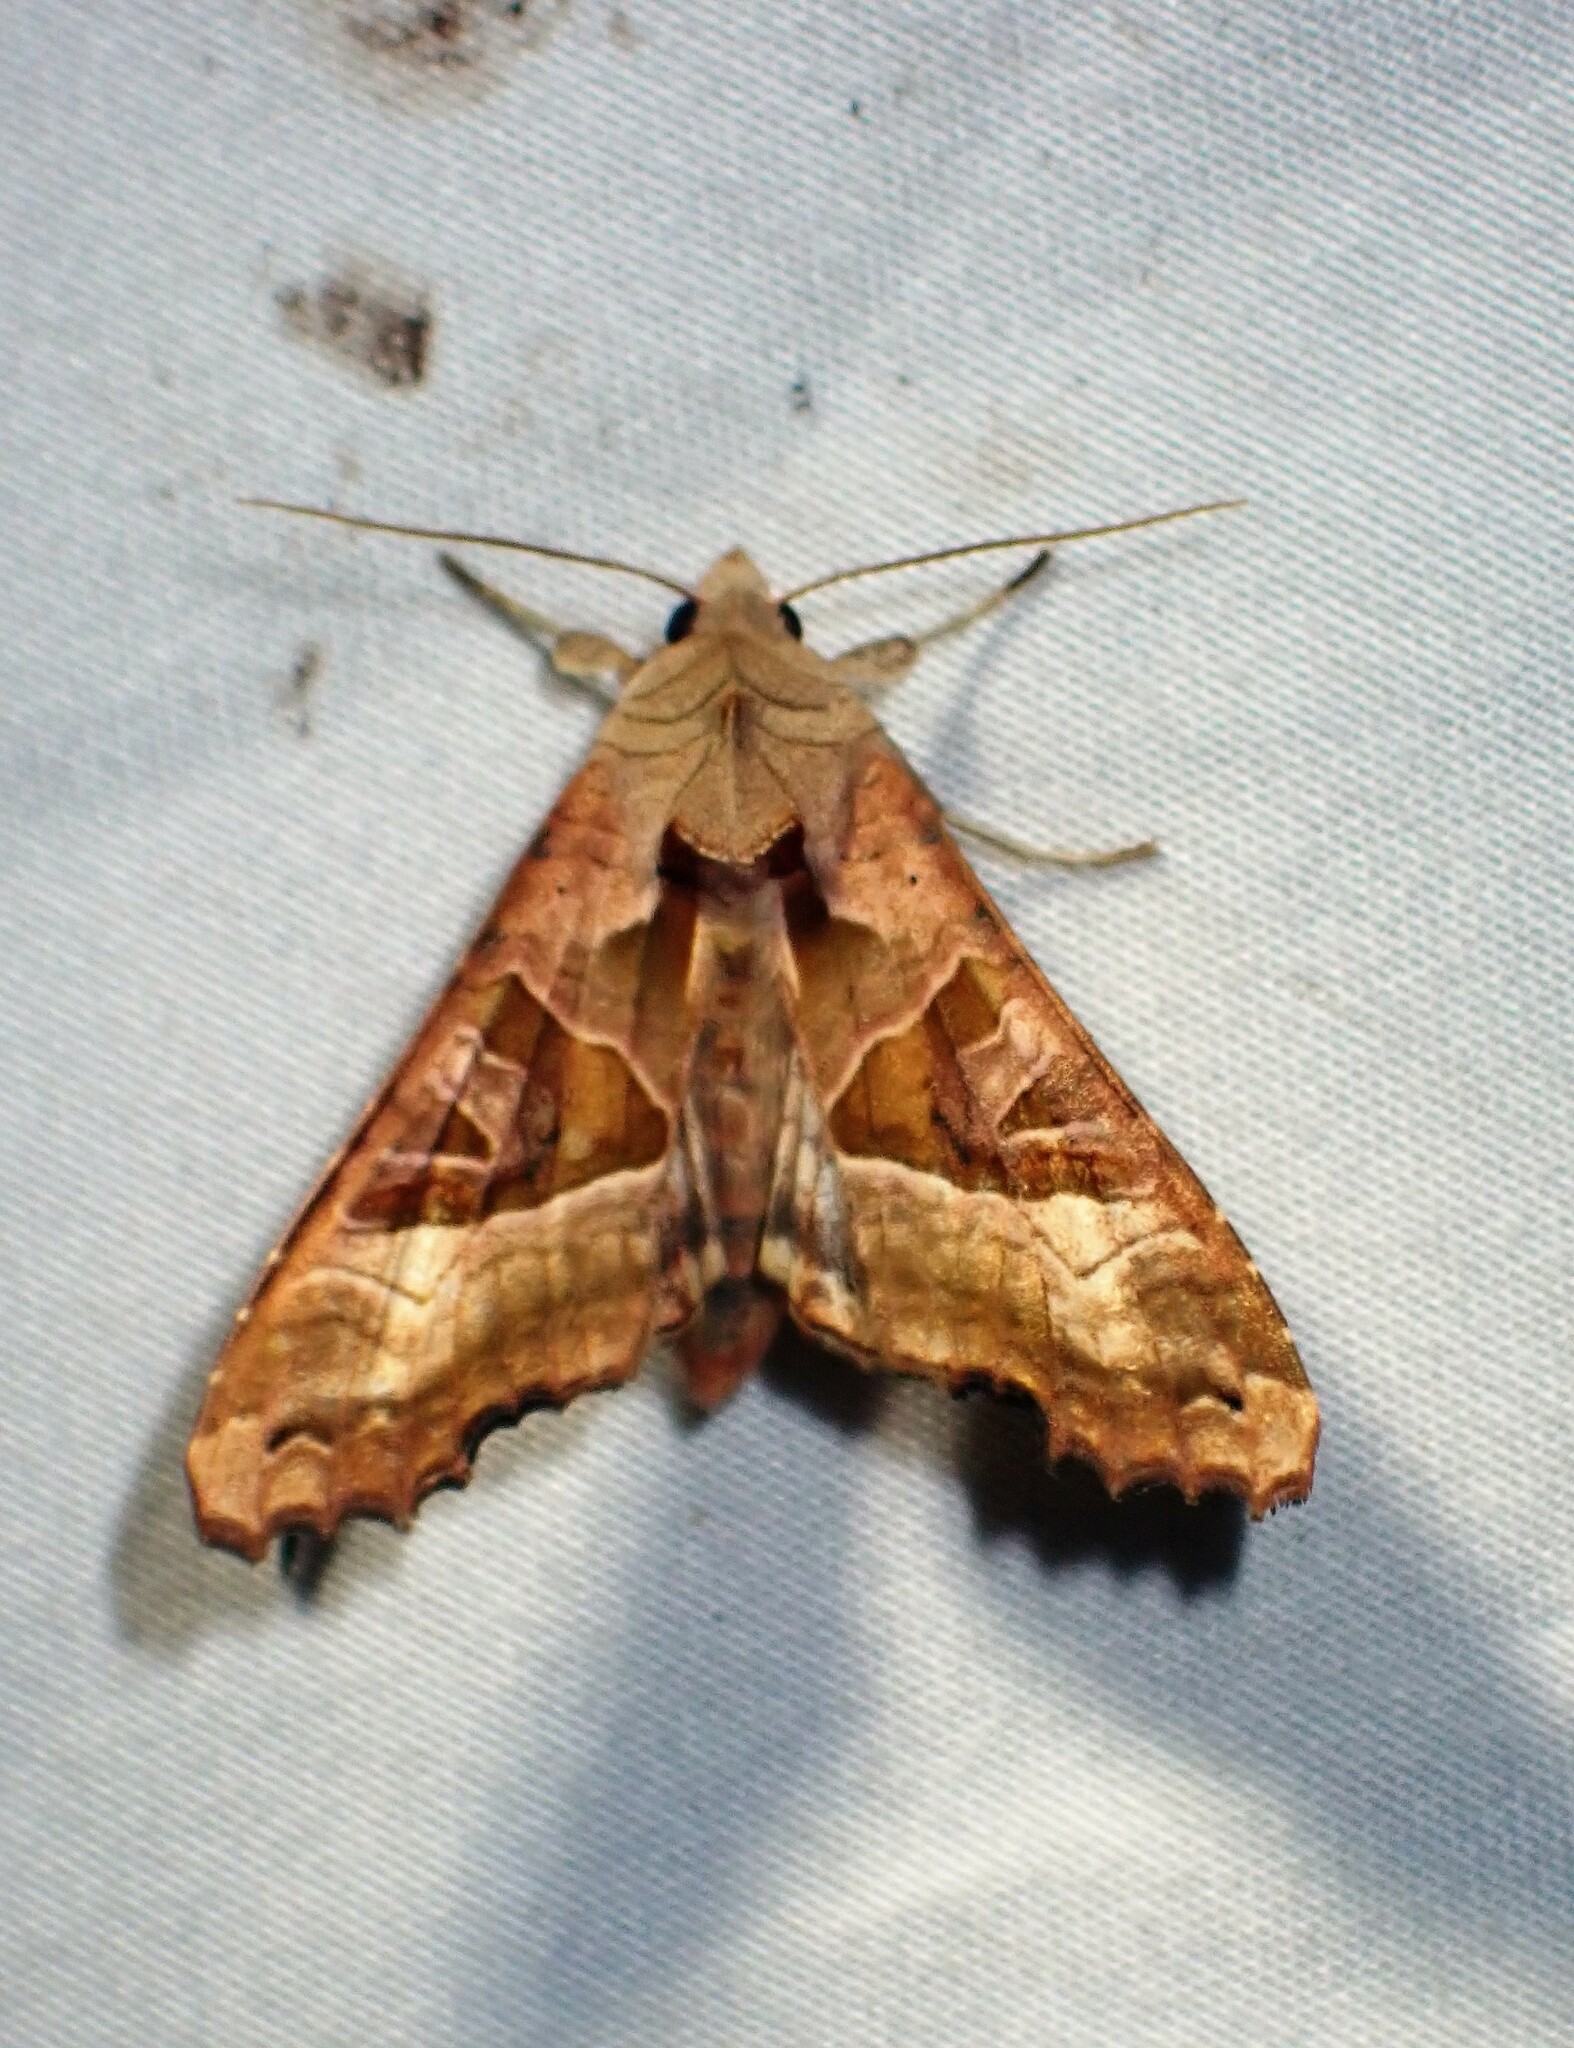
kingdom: Animalia
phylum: Arthropoda
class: Insecta
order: Lepidoptera
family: Noctuidae
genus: Phlogophora
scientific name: Phlogophora meticulosa
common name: Angle shades
